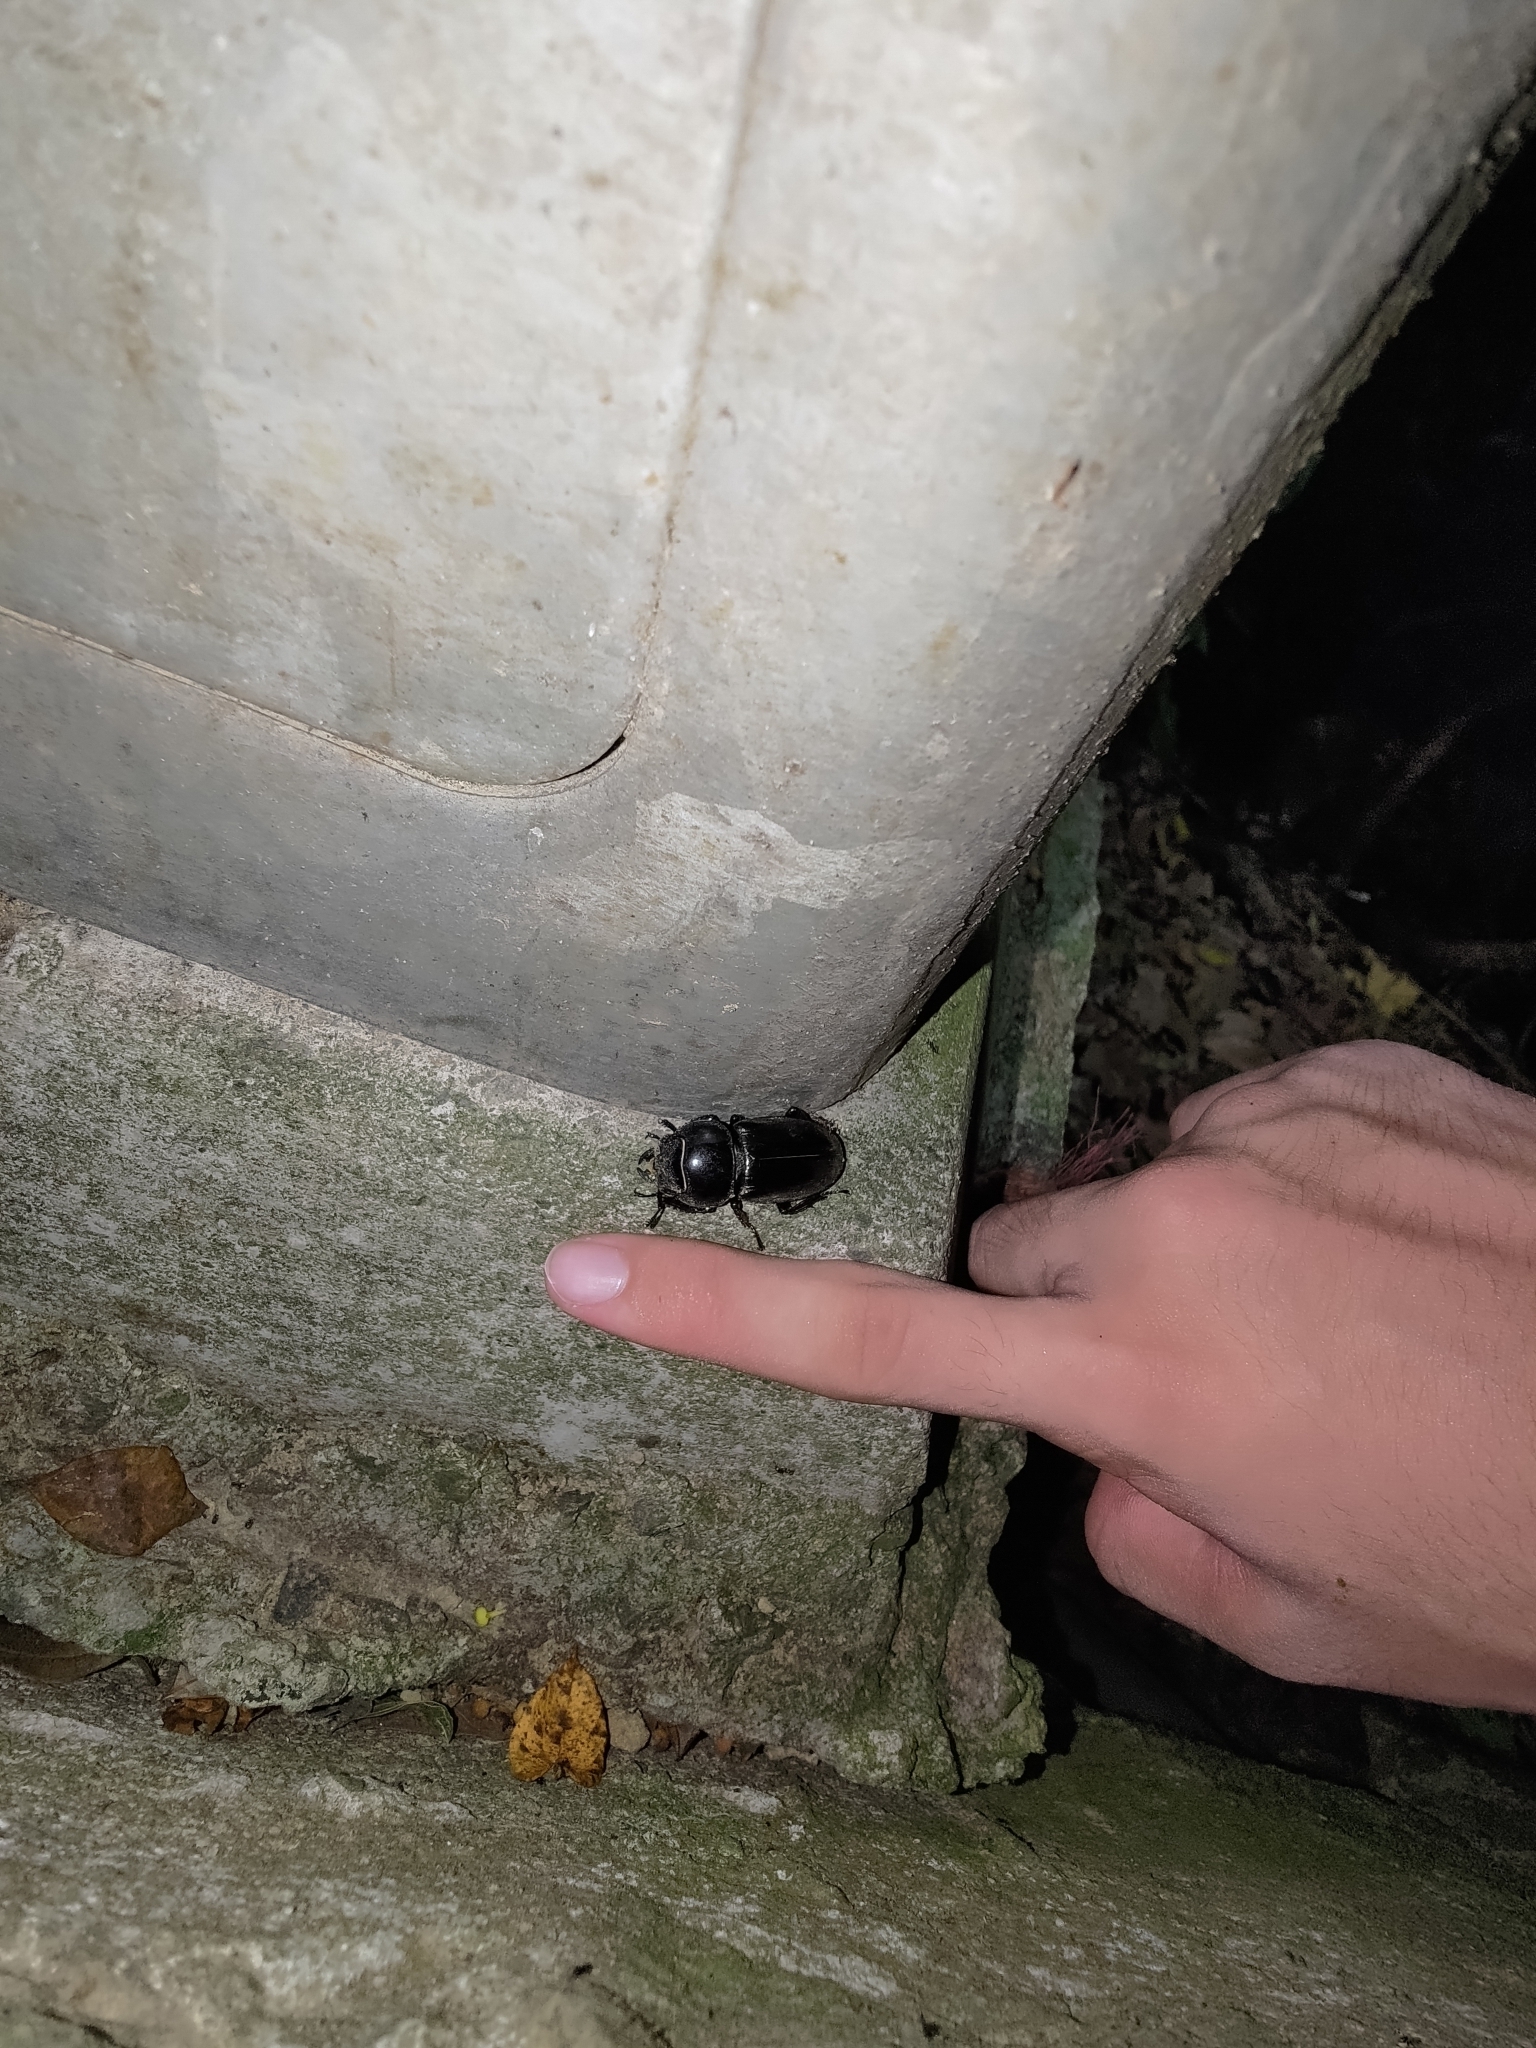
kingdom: Animalia
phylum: Arthropoda
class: Insecta
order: Coleoptera
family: Lucanidae
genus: Serrognathus
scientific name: Serrognathus titanus
